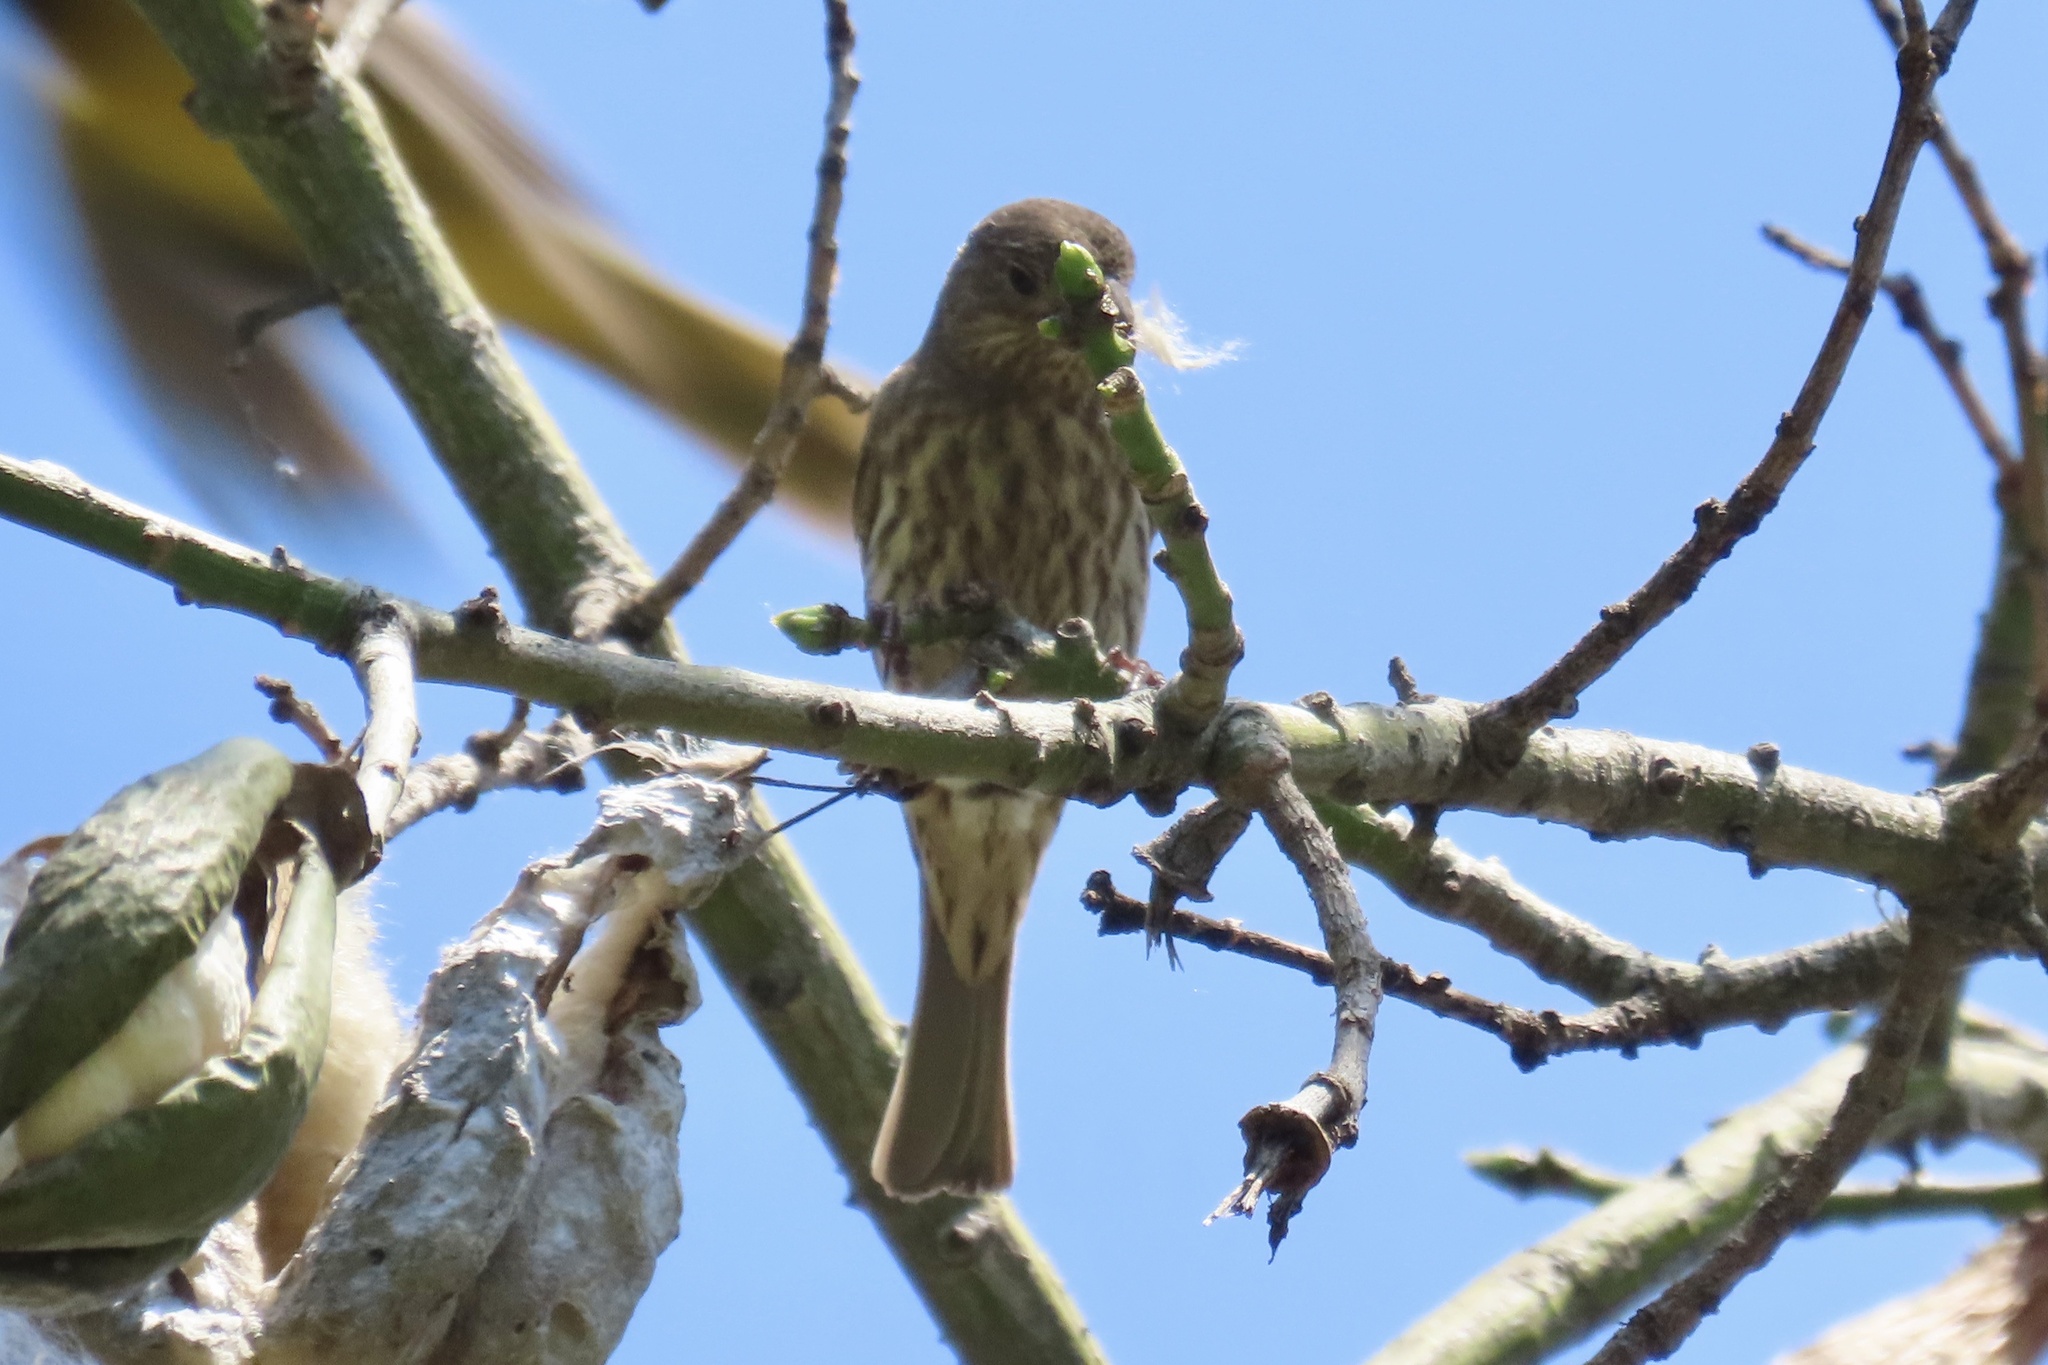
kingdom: Animalia
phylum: Chordata
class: Aves
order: Passeriformes
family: Fringillidae
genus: Haemorhous
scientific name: Haemorhous mexicanus
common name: House finch
